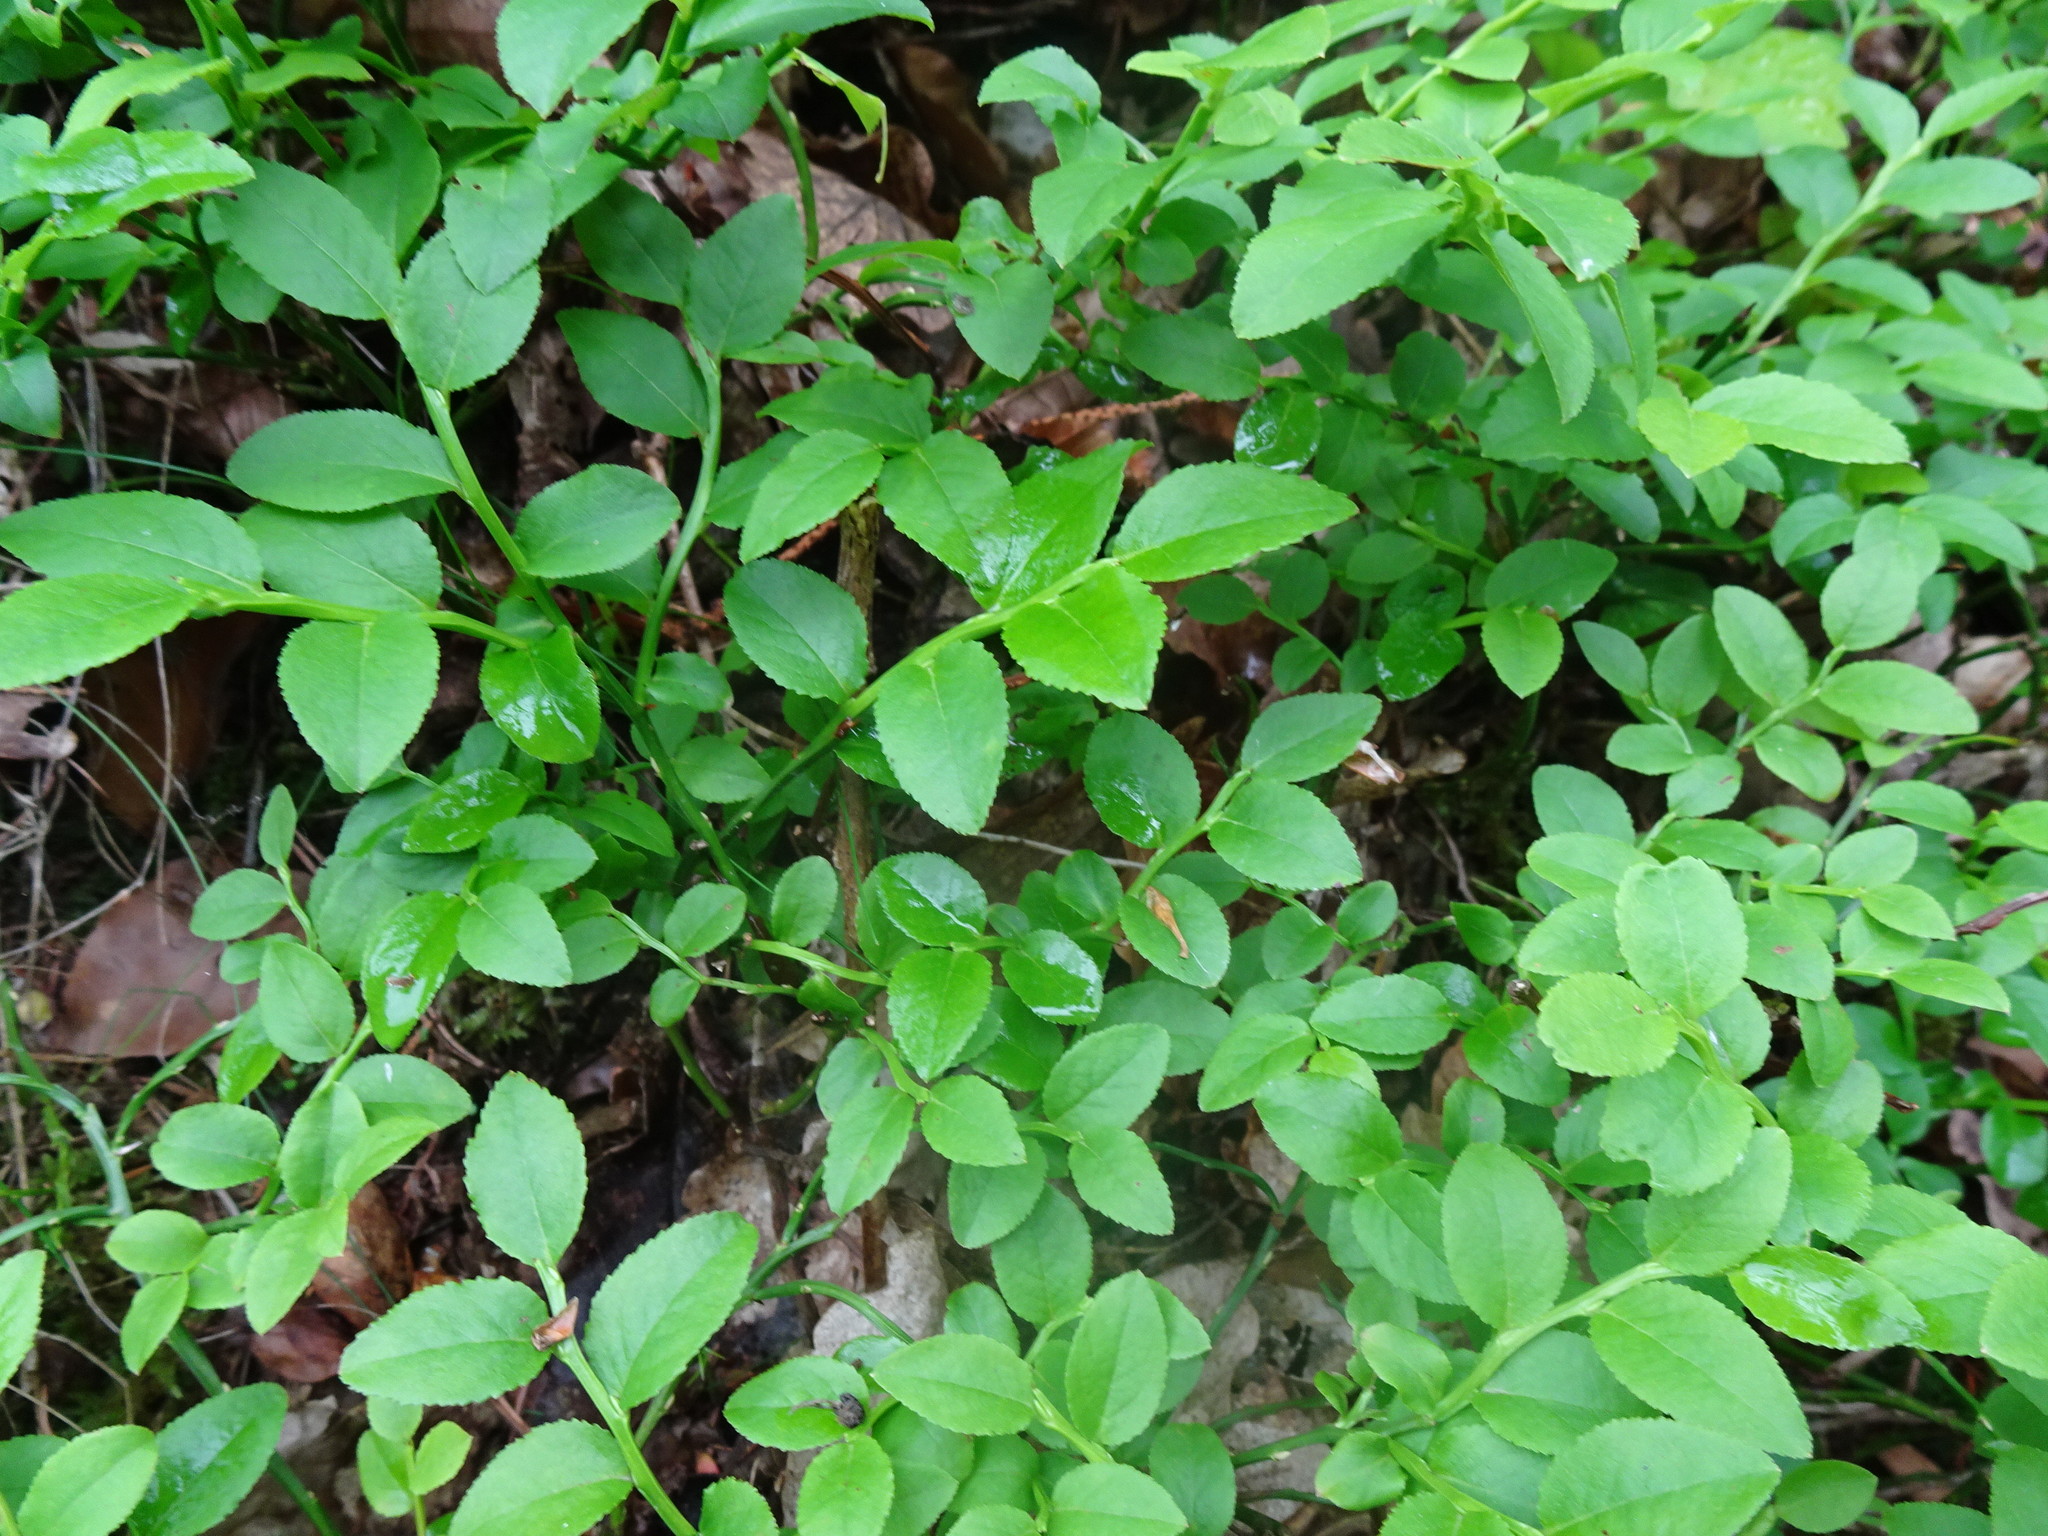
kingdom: Plantae
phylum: Tracheophyta
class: Magnoliopsida
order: Ericales
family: Ericaceae
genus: Vaccinium
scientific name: Vaccinium myrtillus
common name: Bilberry
